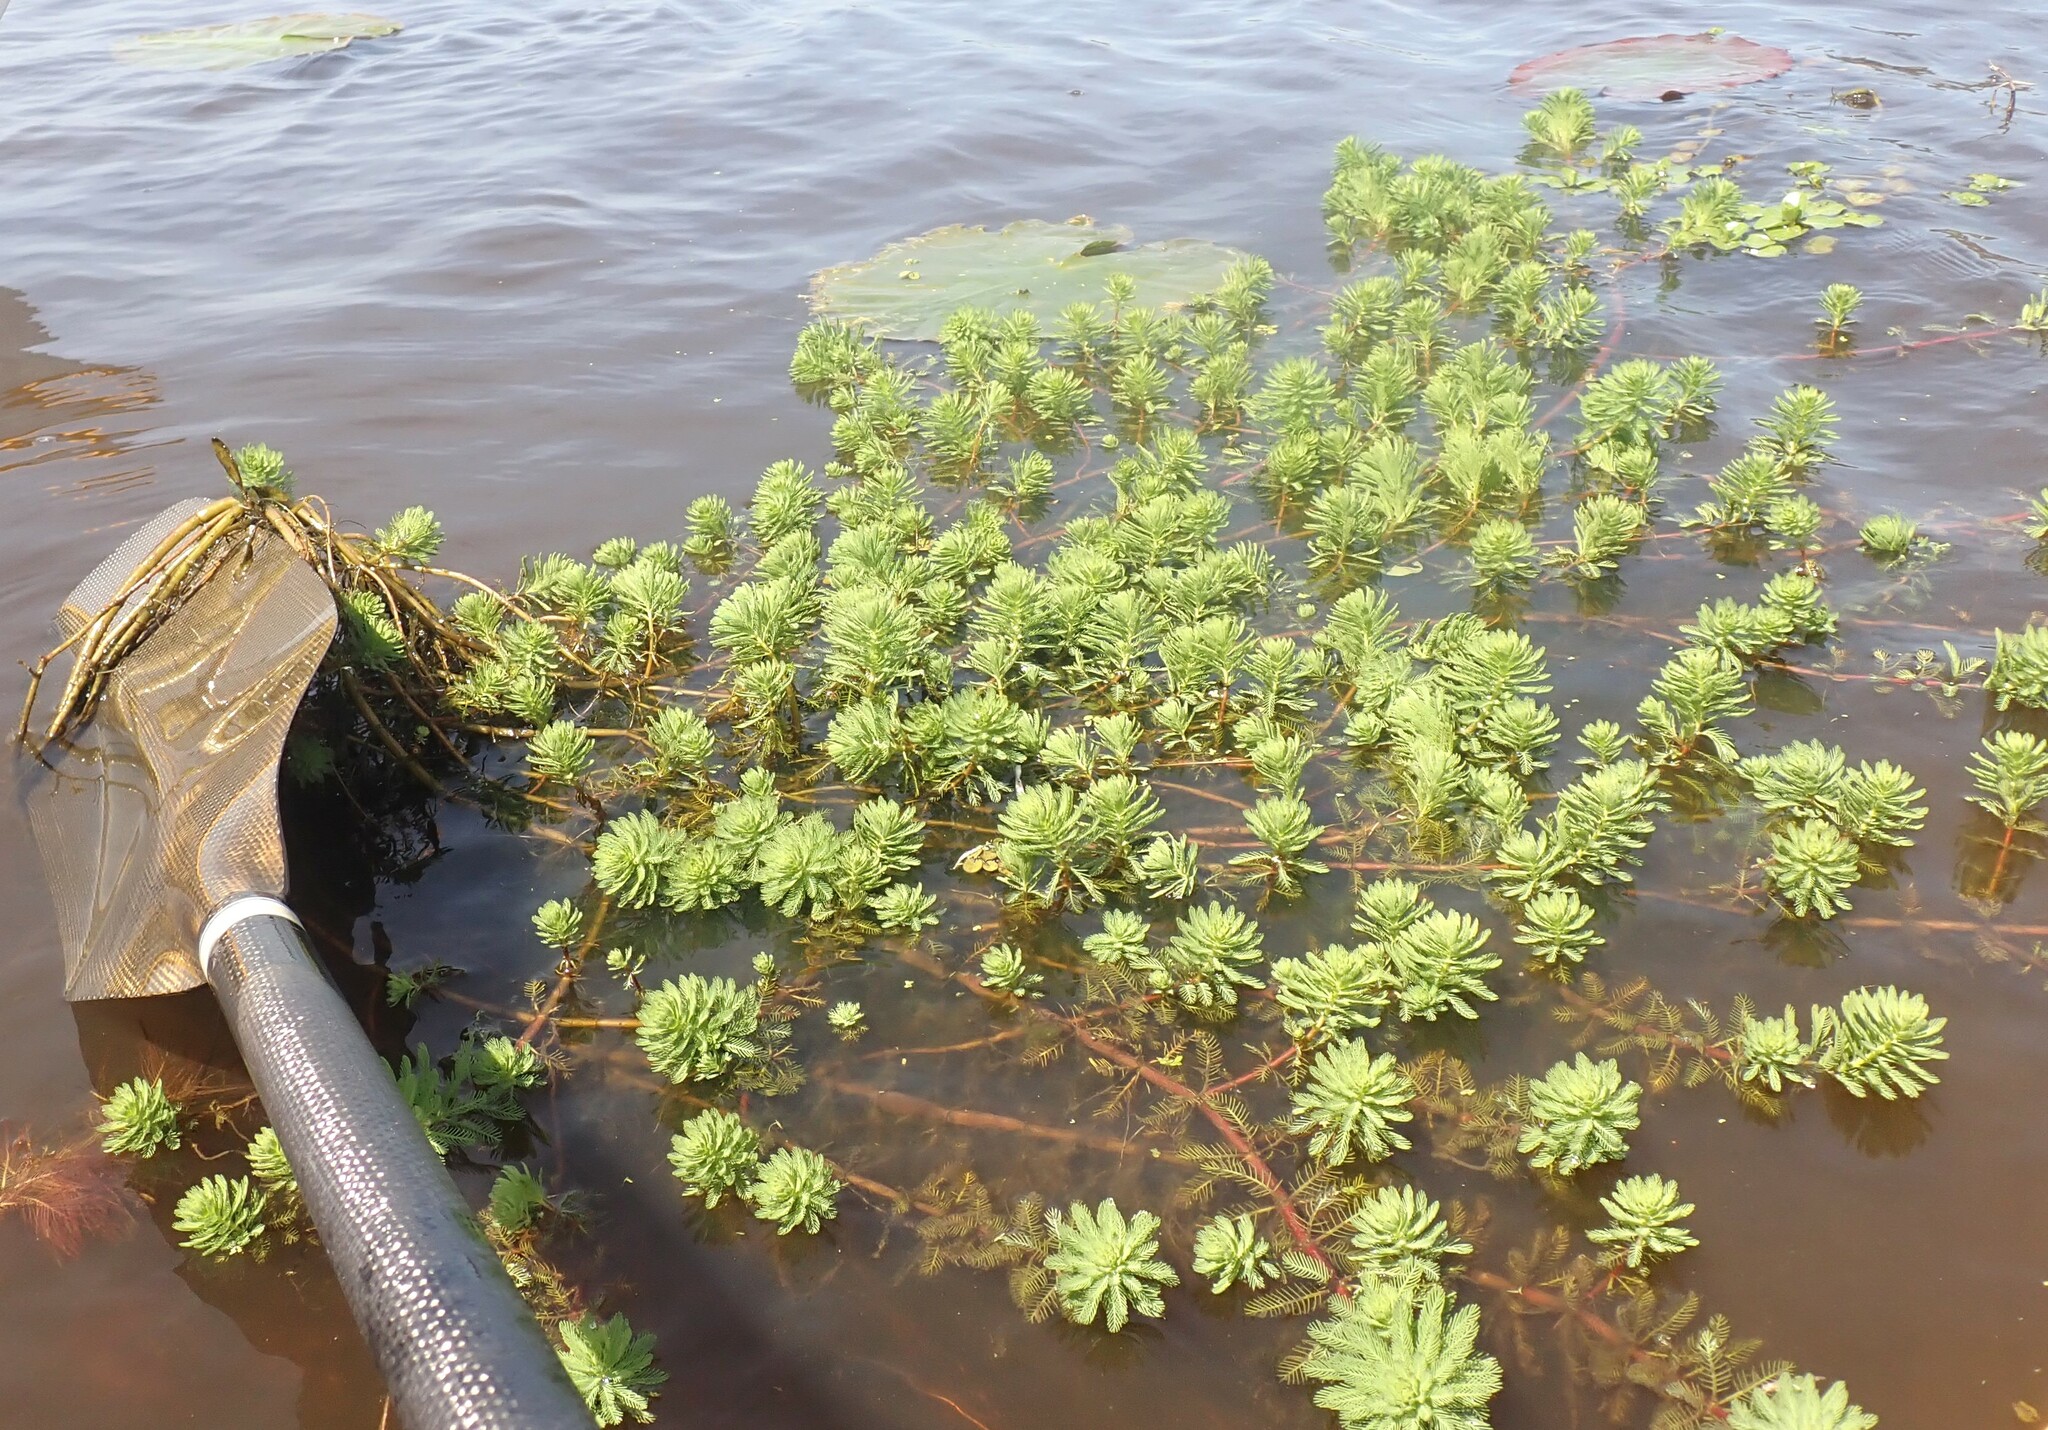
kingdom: Plantae
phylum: Tracheophyta
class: Magnoliopsida
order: Saxifragales
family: Haloragaceae
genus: Myriophyllum
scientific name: Myriophyllum aquaticum
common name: Parrot's feather
